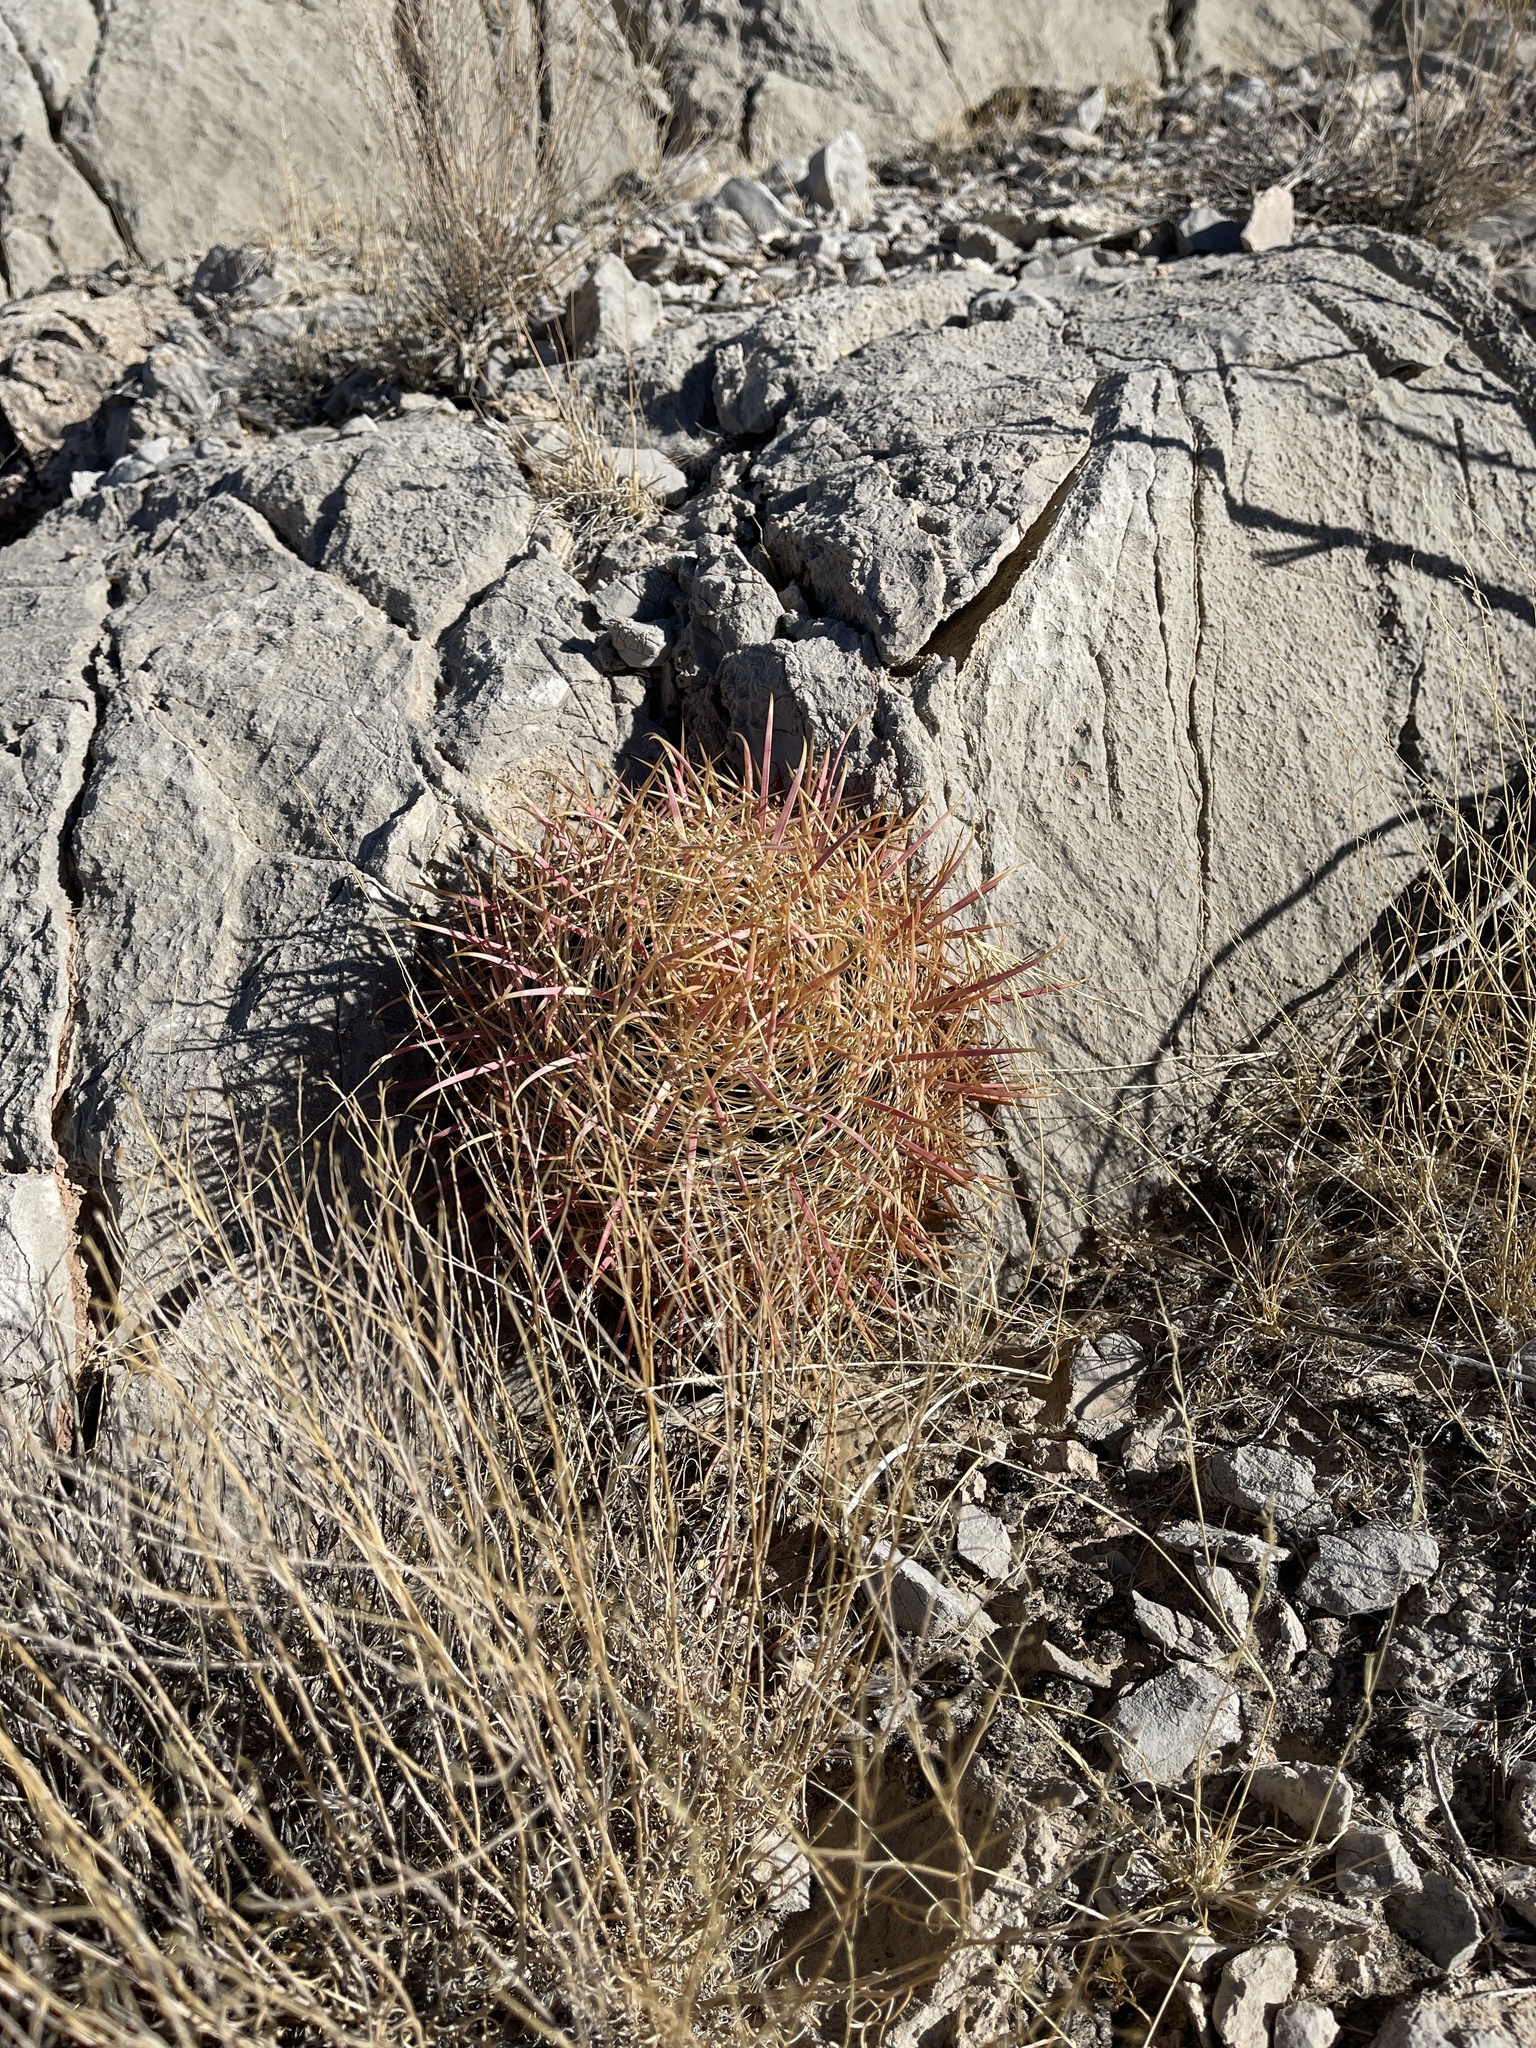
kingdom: Plantae
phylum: Tracheophyta
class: Magnoliopsida
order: Caryophyllales
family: Cactaceae
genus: Ferocactus
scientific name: Ferocactus cylindraceus
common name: California barrel cactus
